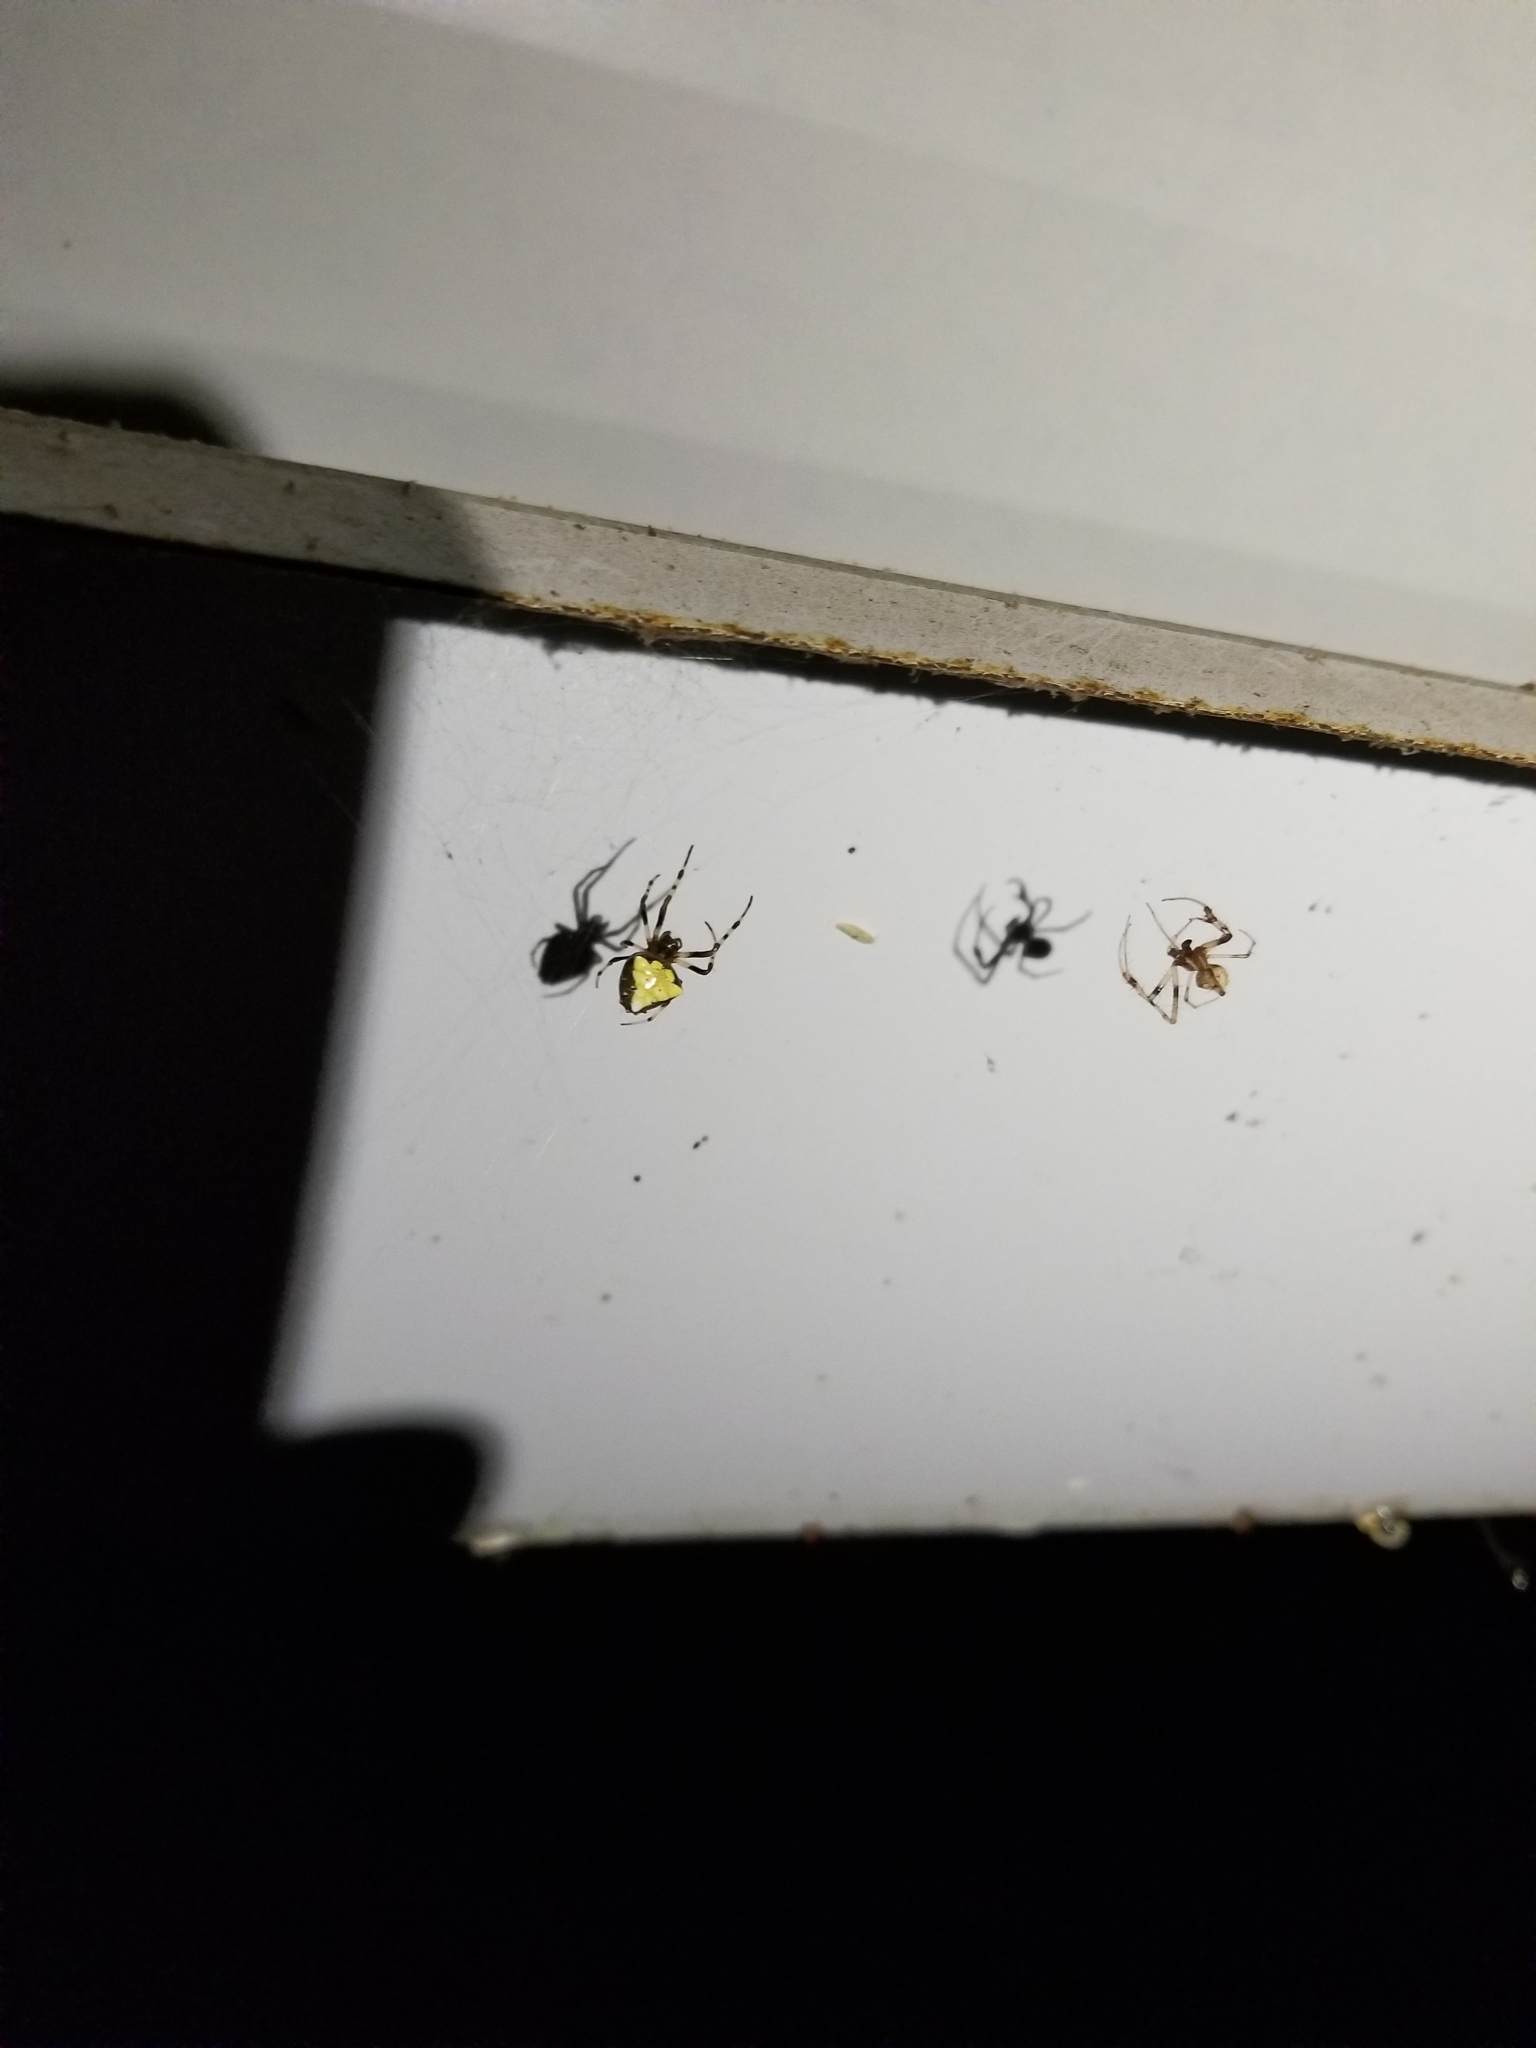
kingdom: Animalia
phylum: Arthropoda
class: Arachnida
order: Araneae
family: Araneidae
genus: Verrucosa
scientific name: Verrucosa arenata
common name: Orb weavers
